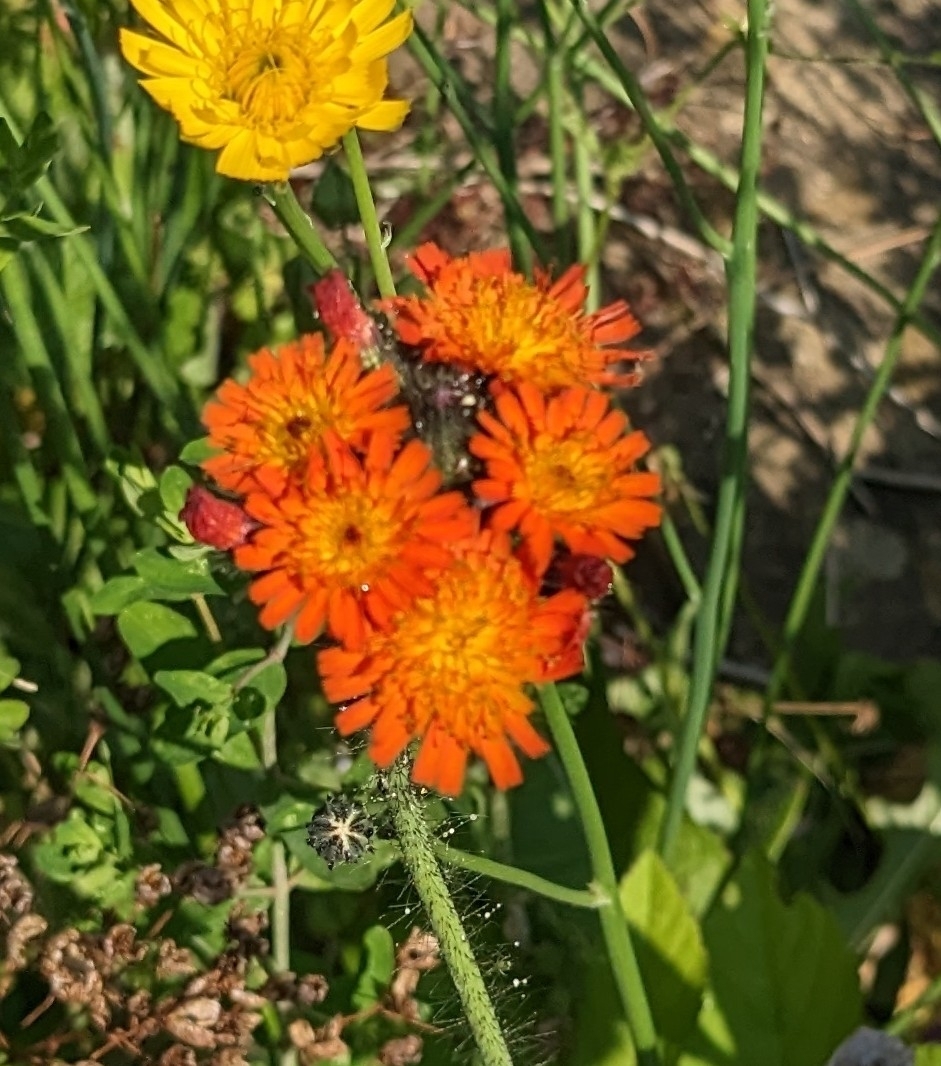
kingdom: Plantae
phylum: Tracheophyta
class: Magnoliopsida
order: Asterales
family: Asteraceae
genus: Pilosella
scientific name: Pilosella aurantiaca
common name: Fox-and-cubs
